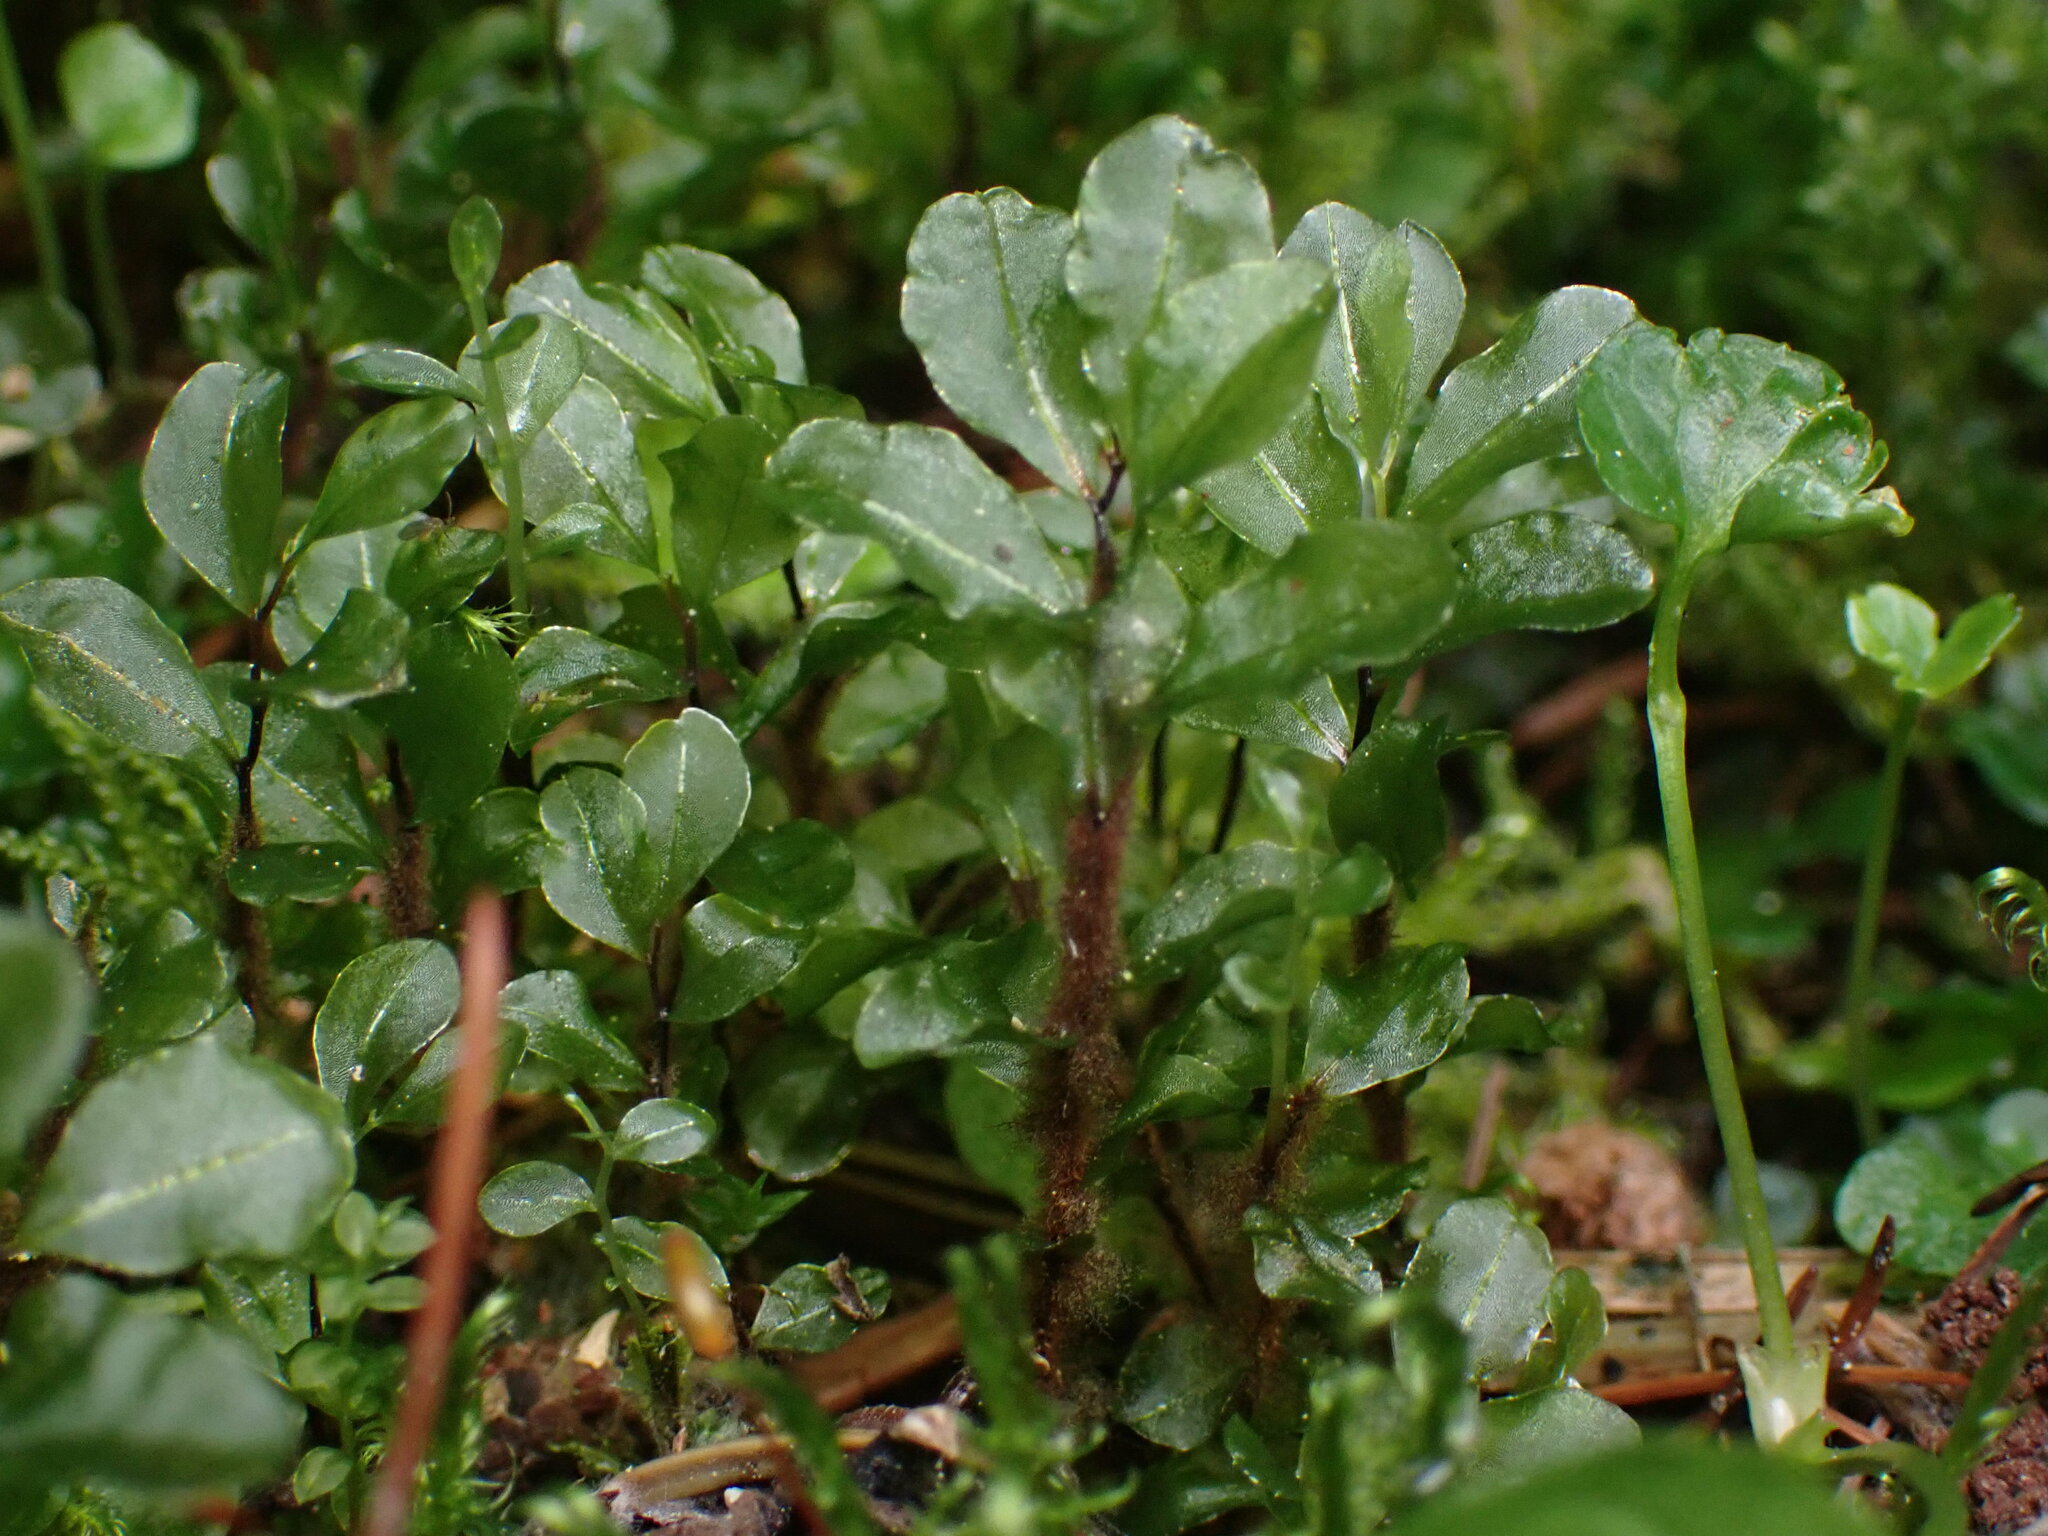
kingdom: Plantae
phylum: Bryophyta
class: Bryopsida
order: Bryales
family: Mniaceae
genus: Rhizomnium
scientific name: Rhizomnium magnifolium
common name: Large-leaved leafy moss
